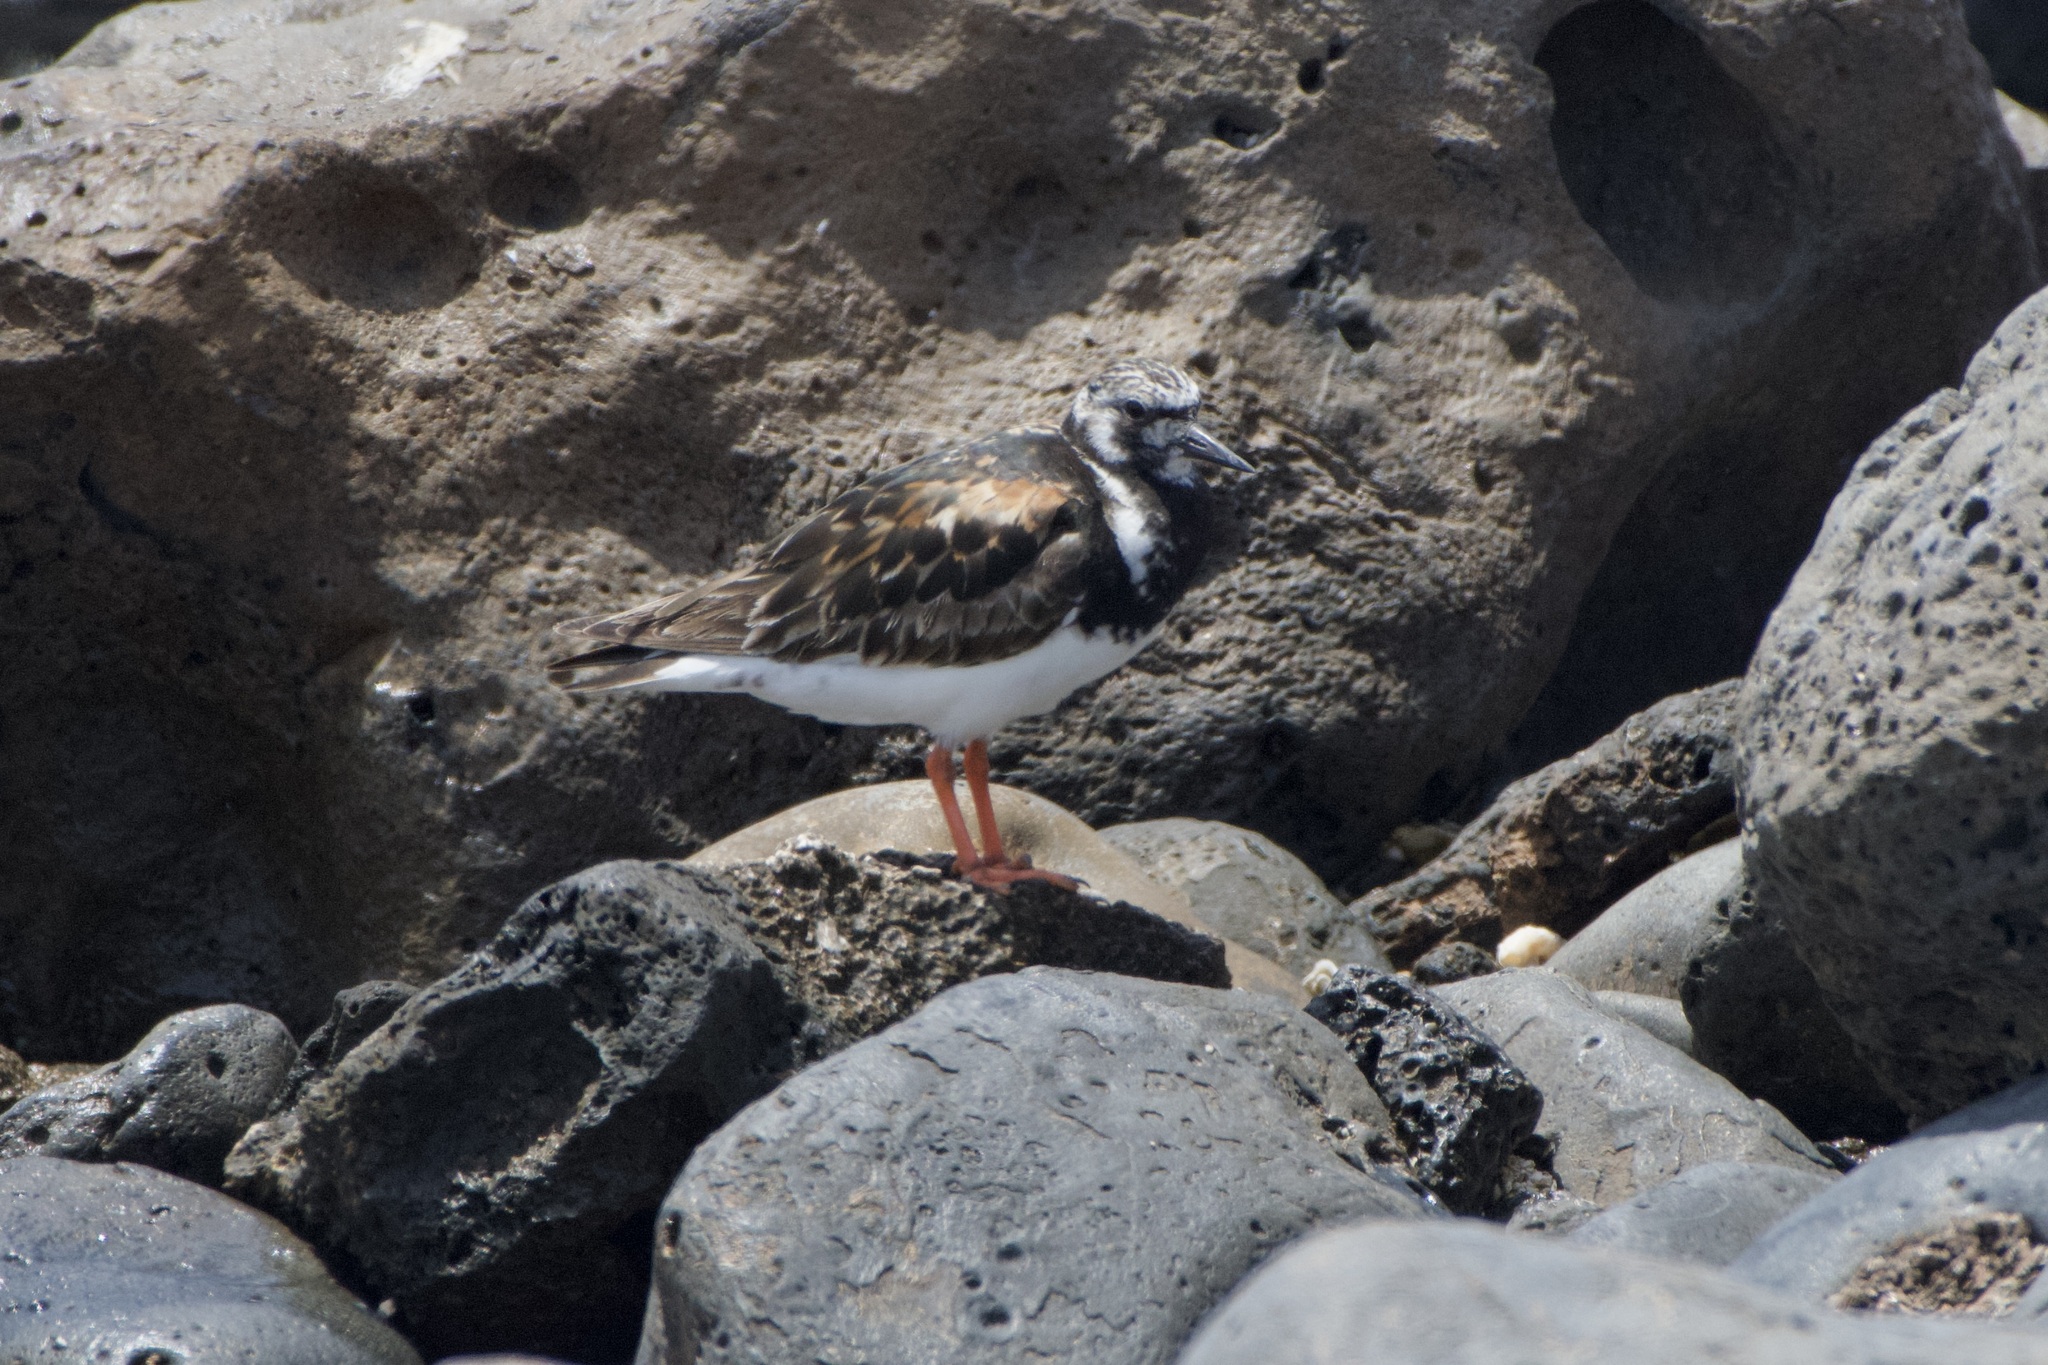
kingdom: Animalia
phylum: Chordata
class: Aves
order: Charadriiformes
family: Scolopacidae
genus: Arenaria
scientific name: Arenaria interpres
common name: Ruddy turnstone
